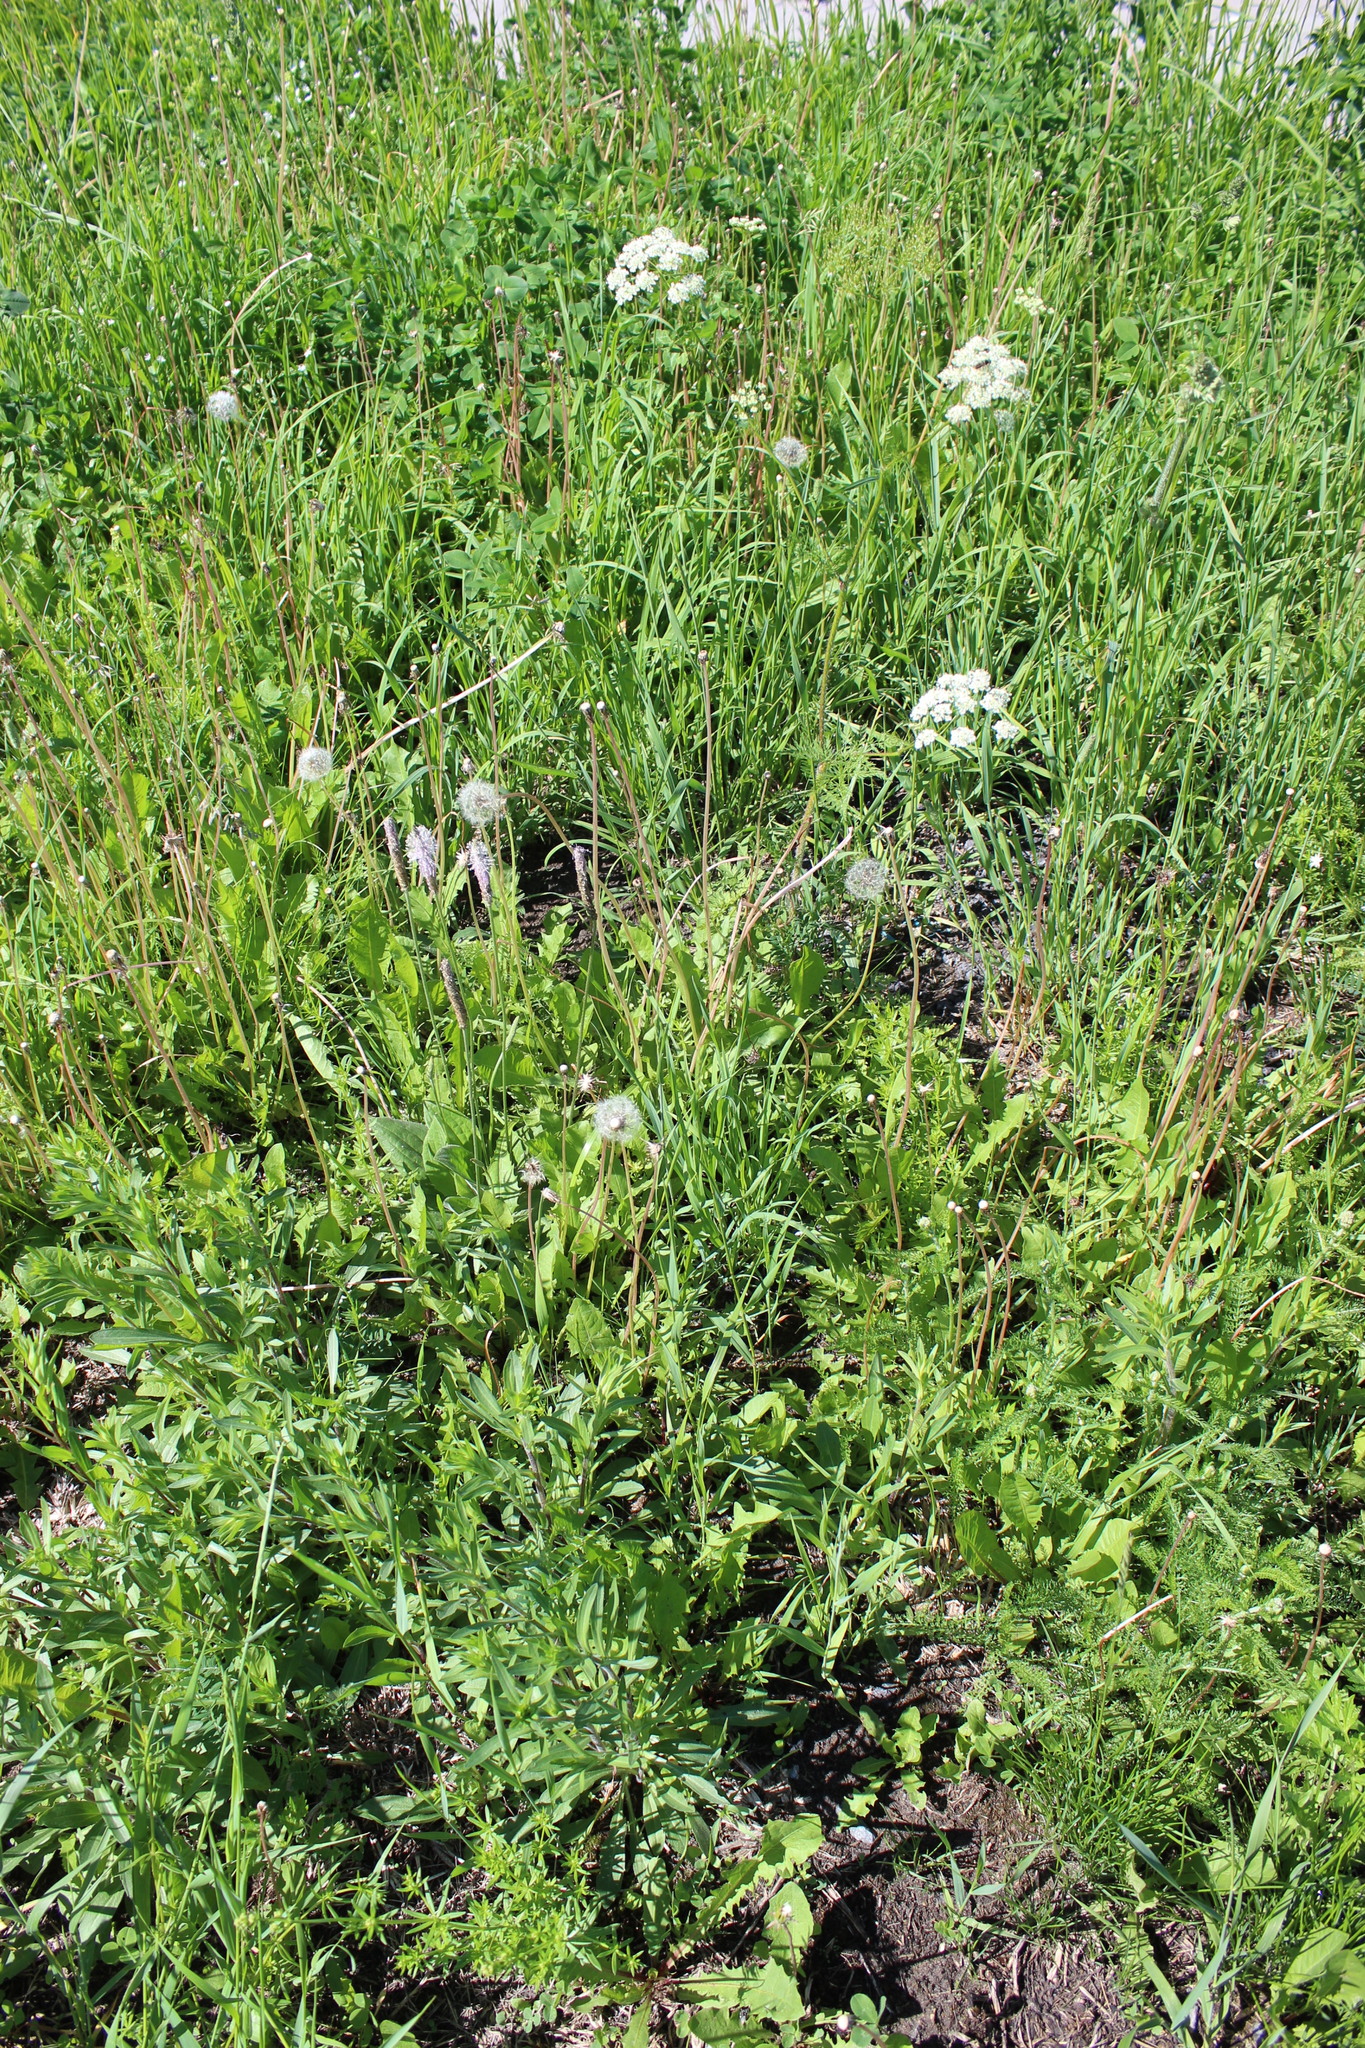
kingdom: Plantae
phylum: Tracheophyta
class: Magnoliopsida
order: Apiales
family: Apiaceae
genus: Pimpinella
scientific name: Pimpinella saxifraga
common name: Burnet-saxifrage
